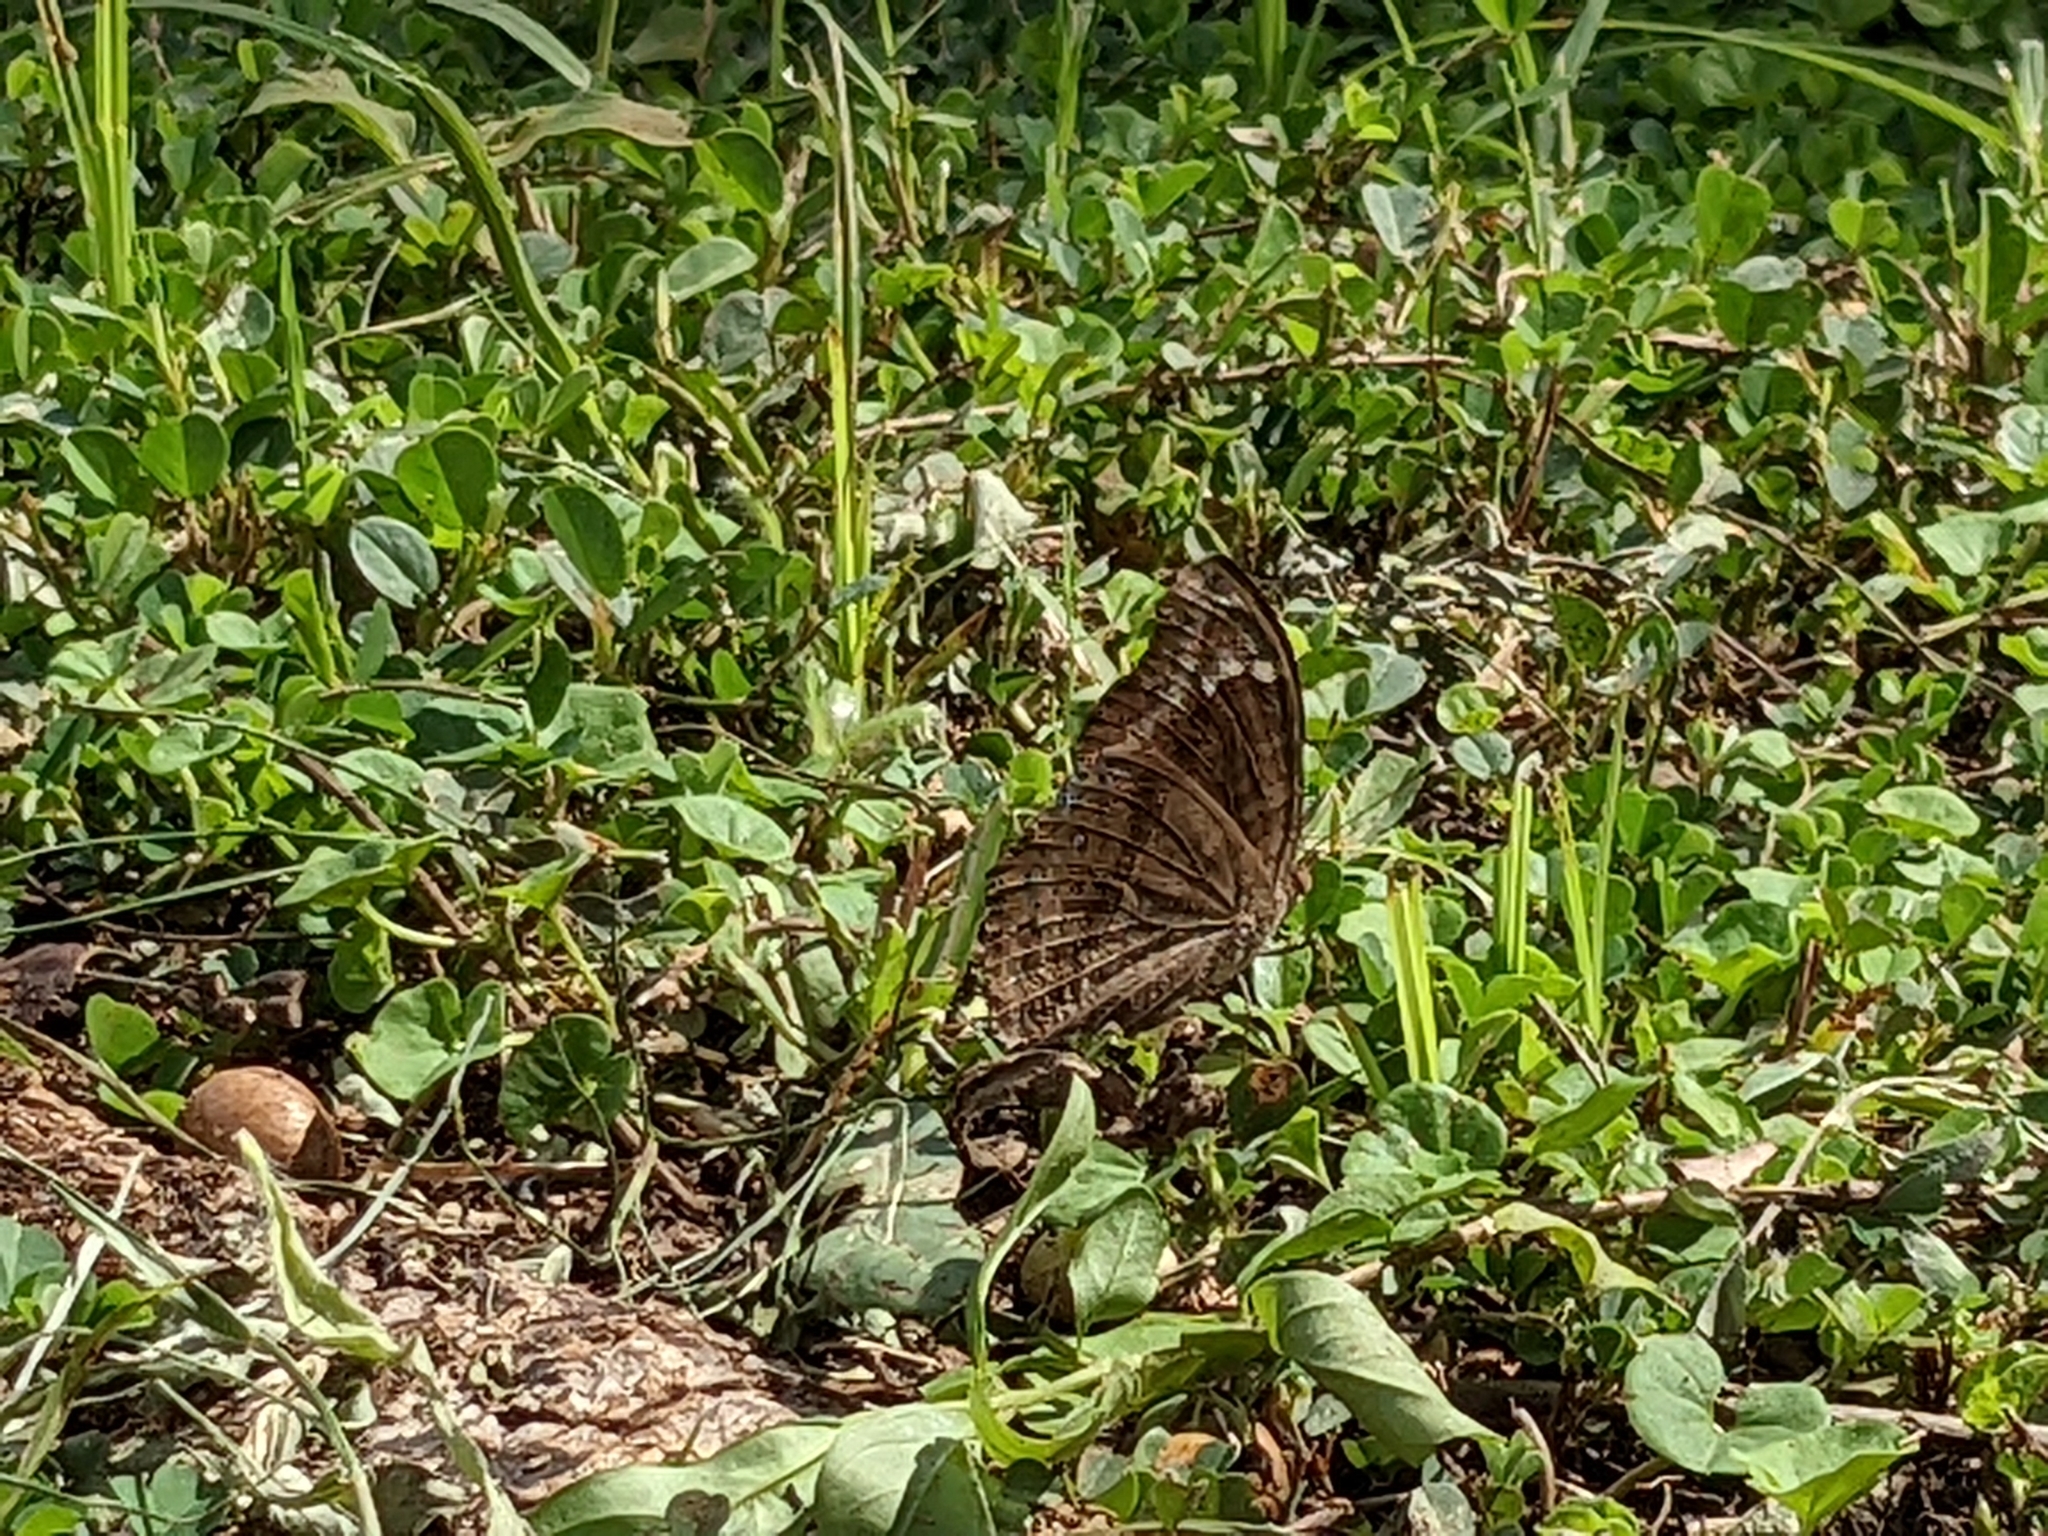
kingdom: Animalia
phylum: Arthropoda
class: Insecta
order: Lepidoptera
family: Nymphalidae
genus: Junonia
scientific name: Junonia natalica
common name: Brown pansy
